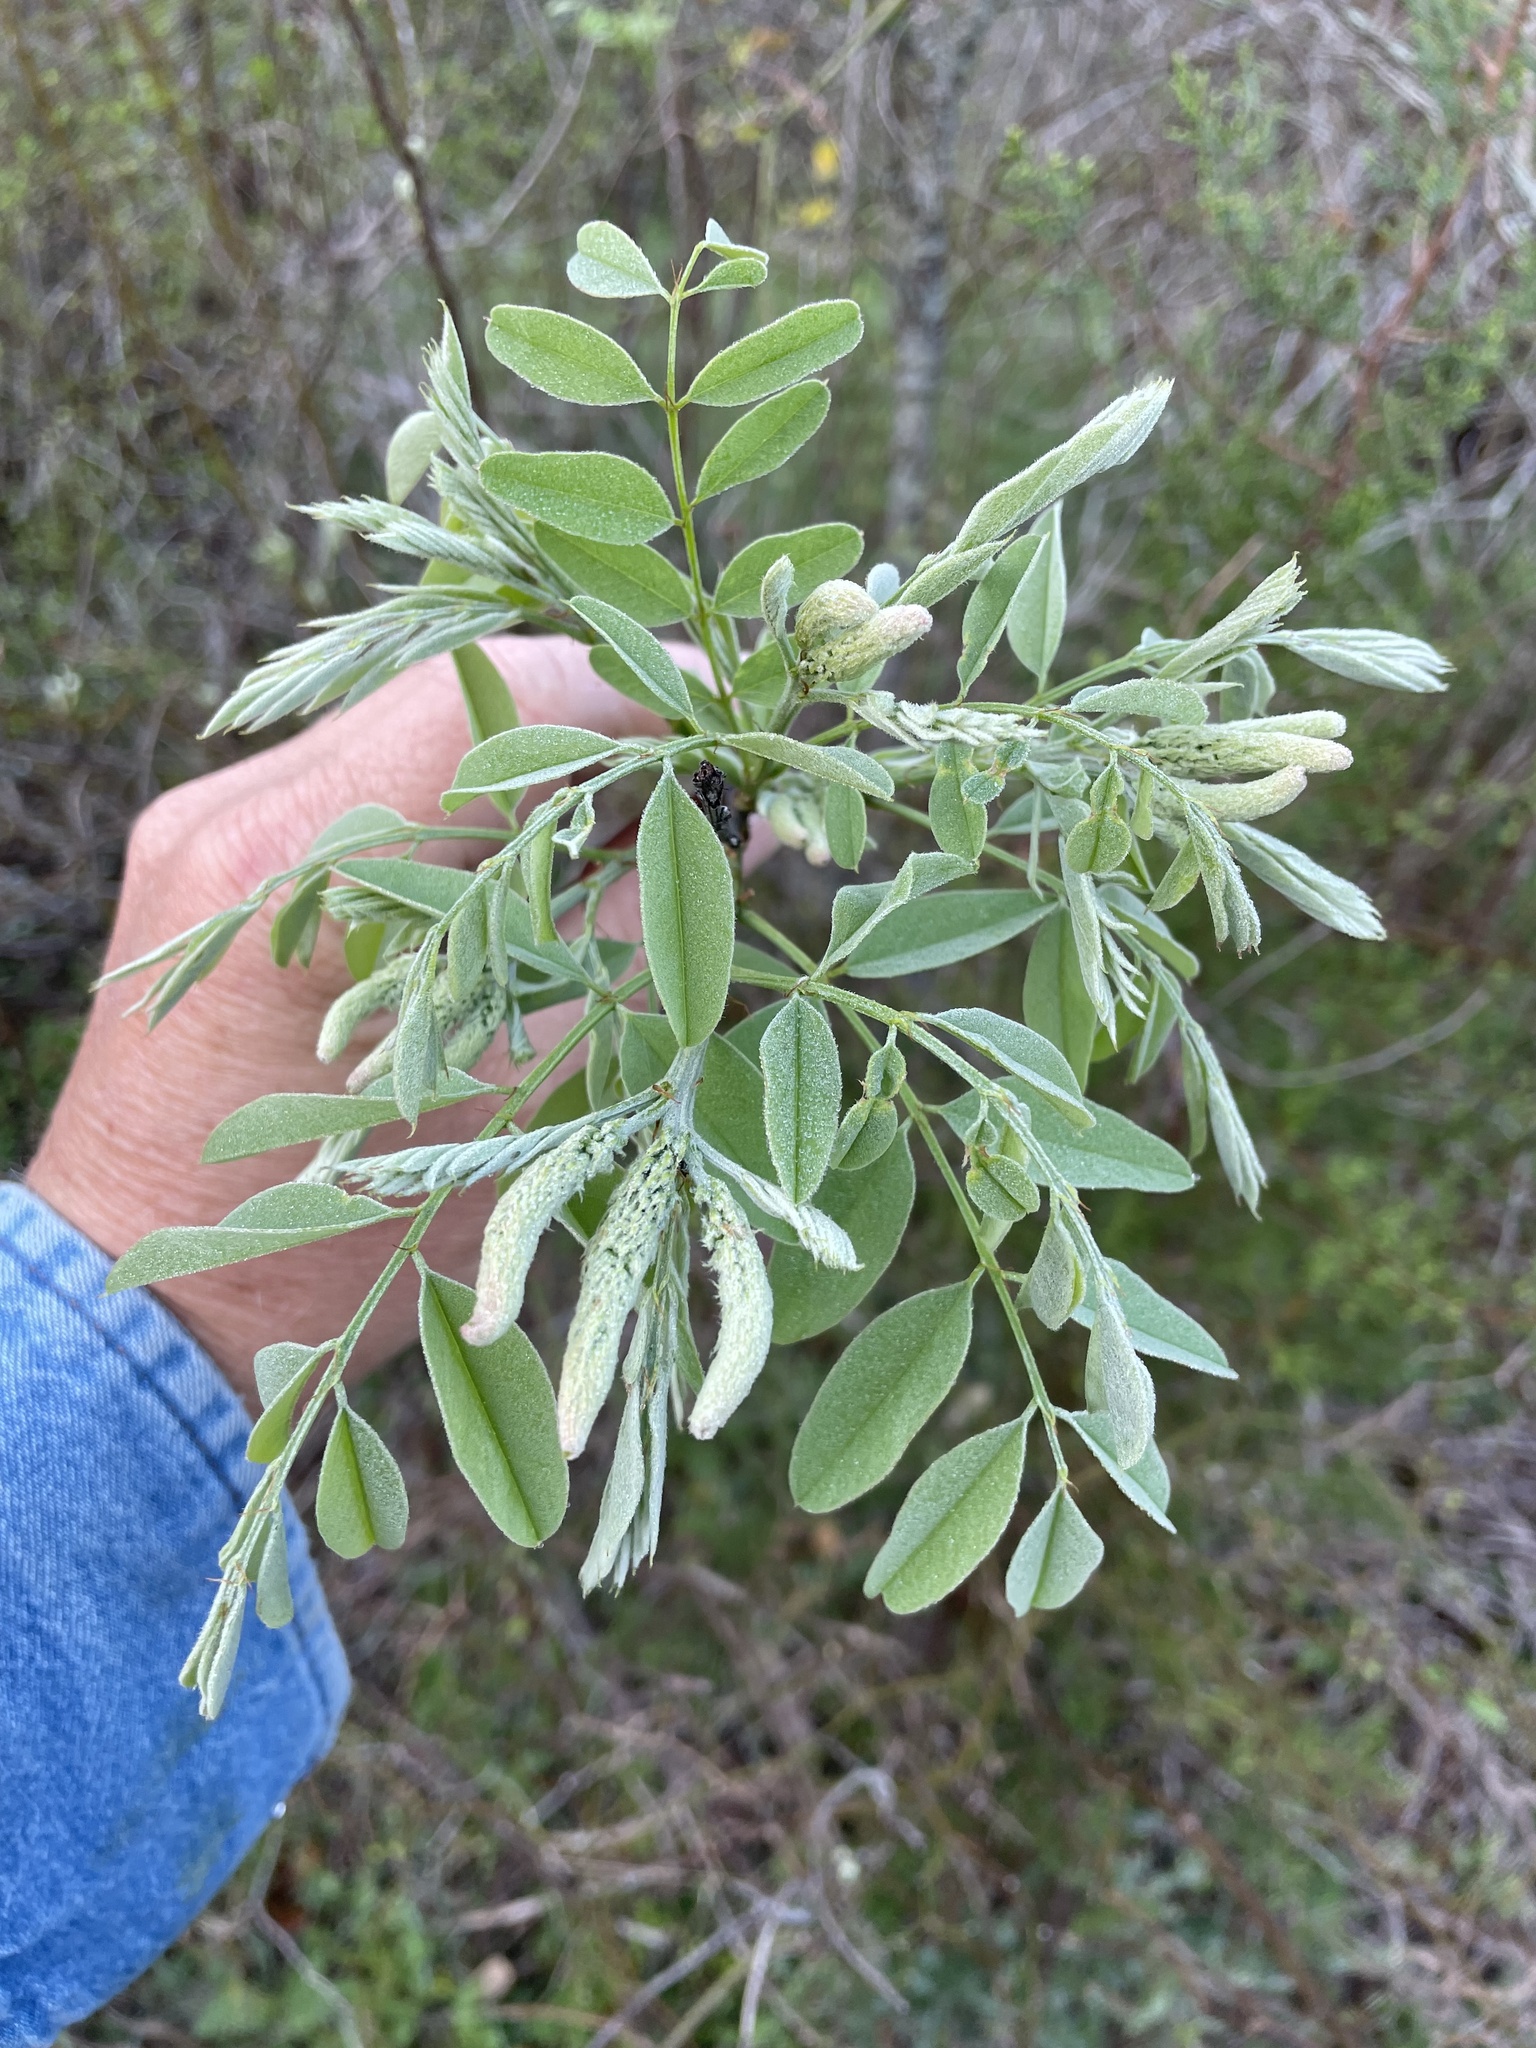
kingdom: Plantae
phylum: Tracheophyta
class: Magnoliopsida
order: Fabales
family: Fabaceae
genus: Amorpha
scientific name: Amorpha fruticosa
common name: False indigo
